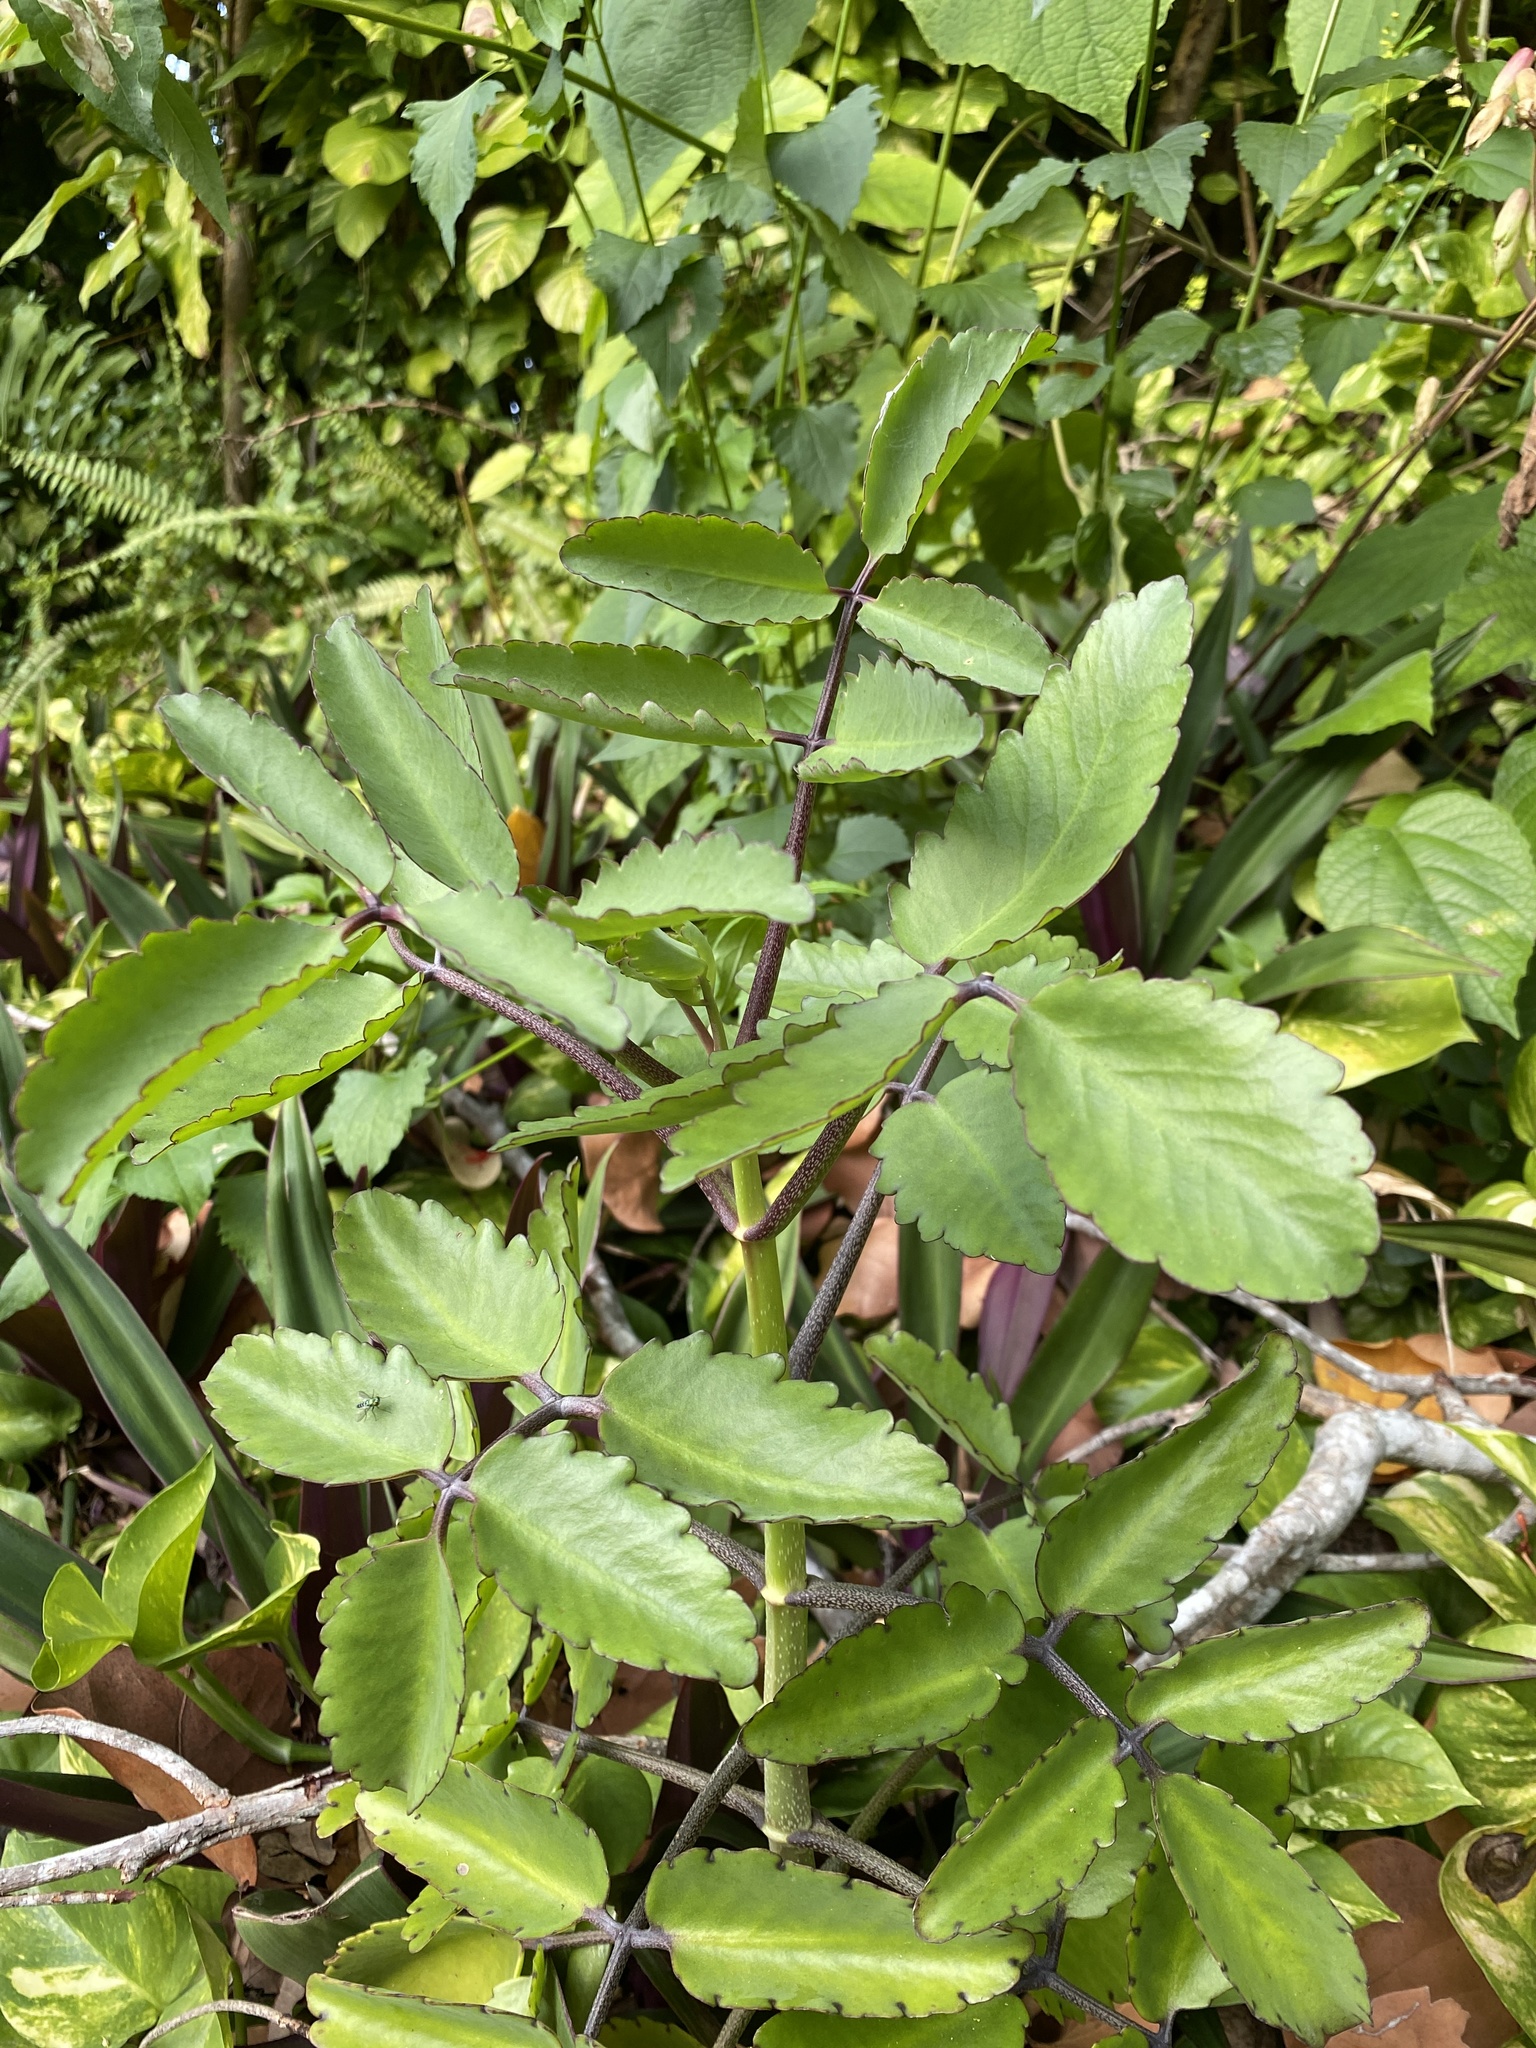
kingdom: Plantae
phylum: Tracheophyta
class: Magnoliopsida
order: Saxifragales
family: Crassulaceae
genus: Kalanchoe
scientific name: Kalanchoe pinnata
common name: Cathedral bells
